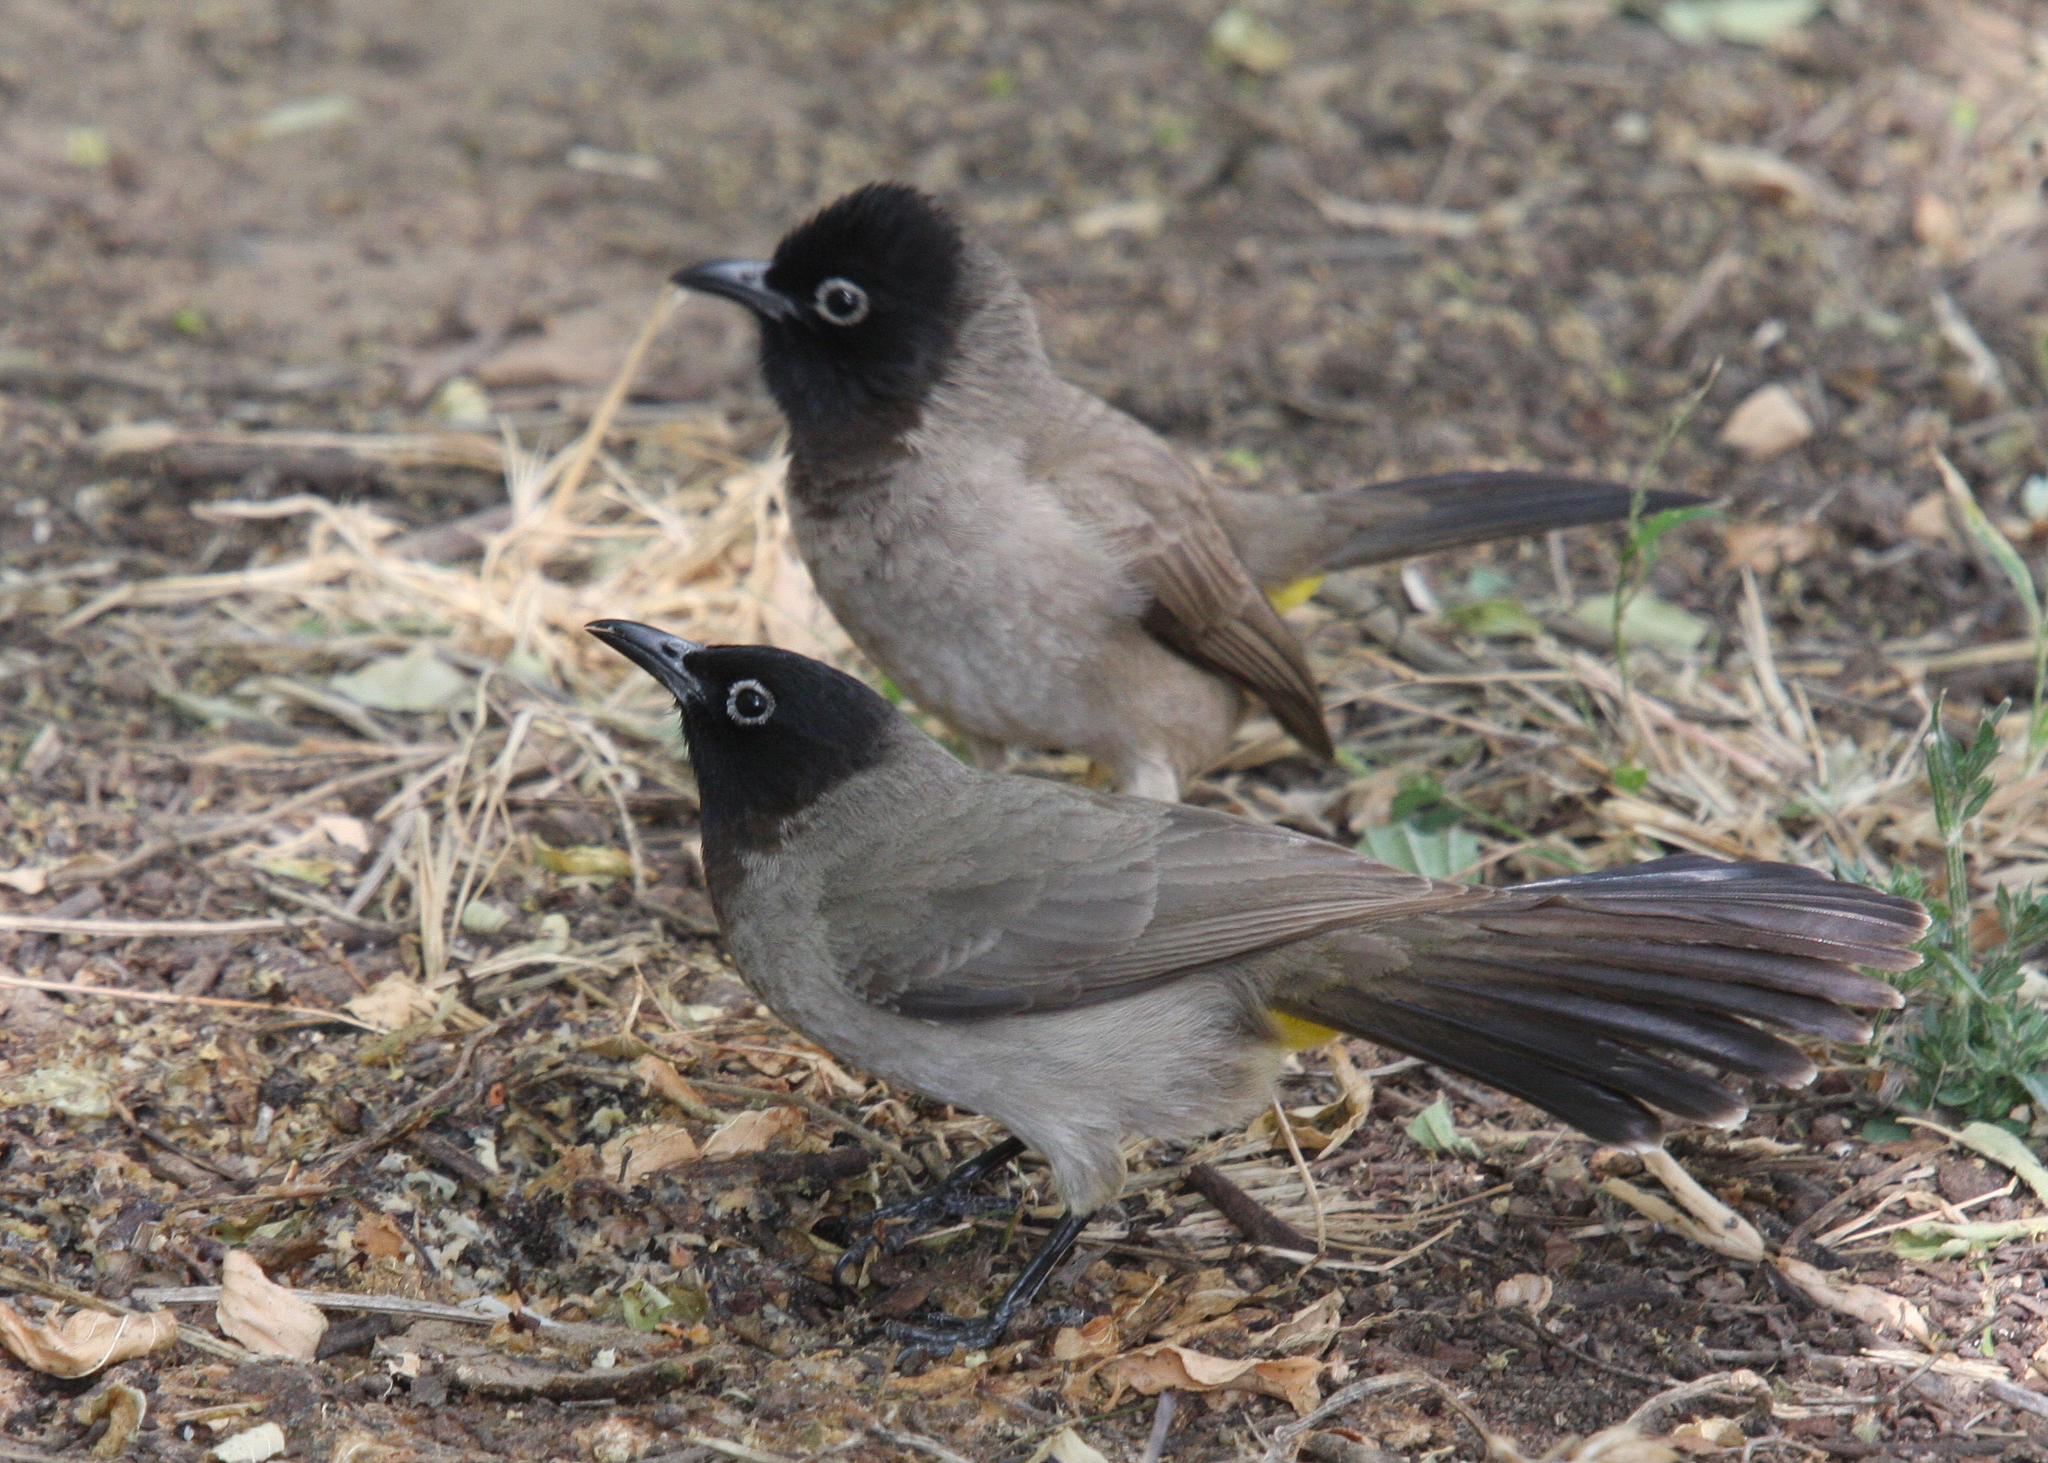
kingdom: Animalia
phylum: Chordata
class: Aves
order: Passeriformes
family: Pycnonotidae
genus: Pycnonotus
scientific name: Pycnonotus xanthopygos
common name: White-spectacled bulbul
